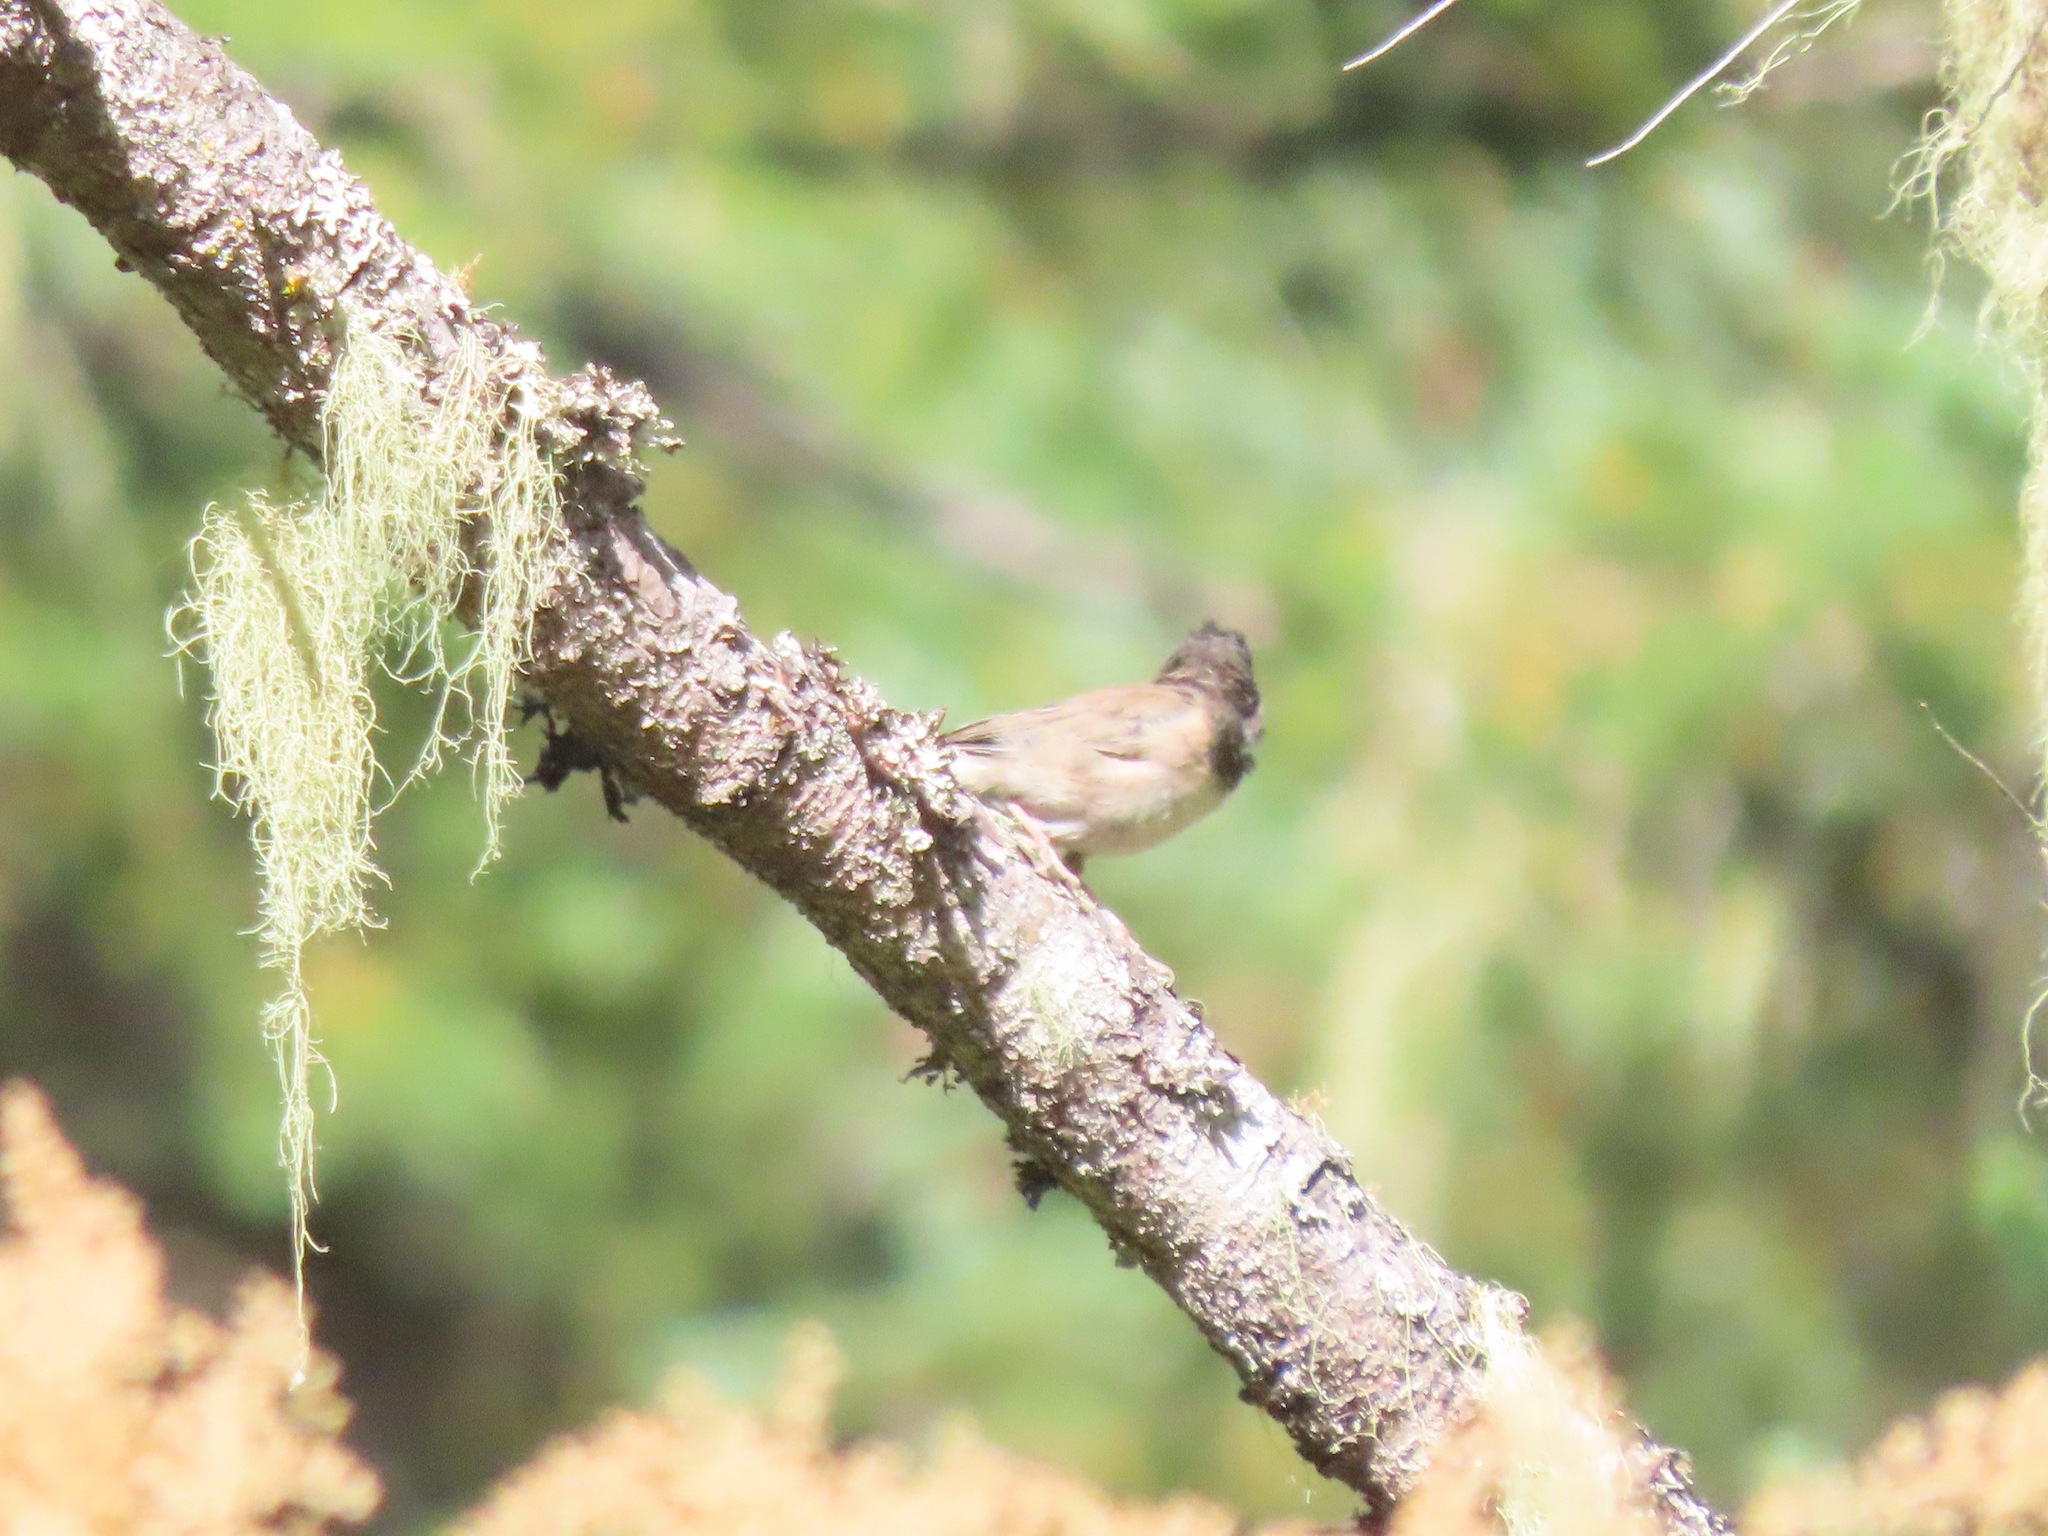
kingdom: Animalia
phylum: Chordata
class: Aves
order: Passeriformes
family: Passerellidae
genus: Junco
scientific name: Junco hyemalis
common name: Dark-eyed junco
